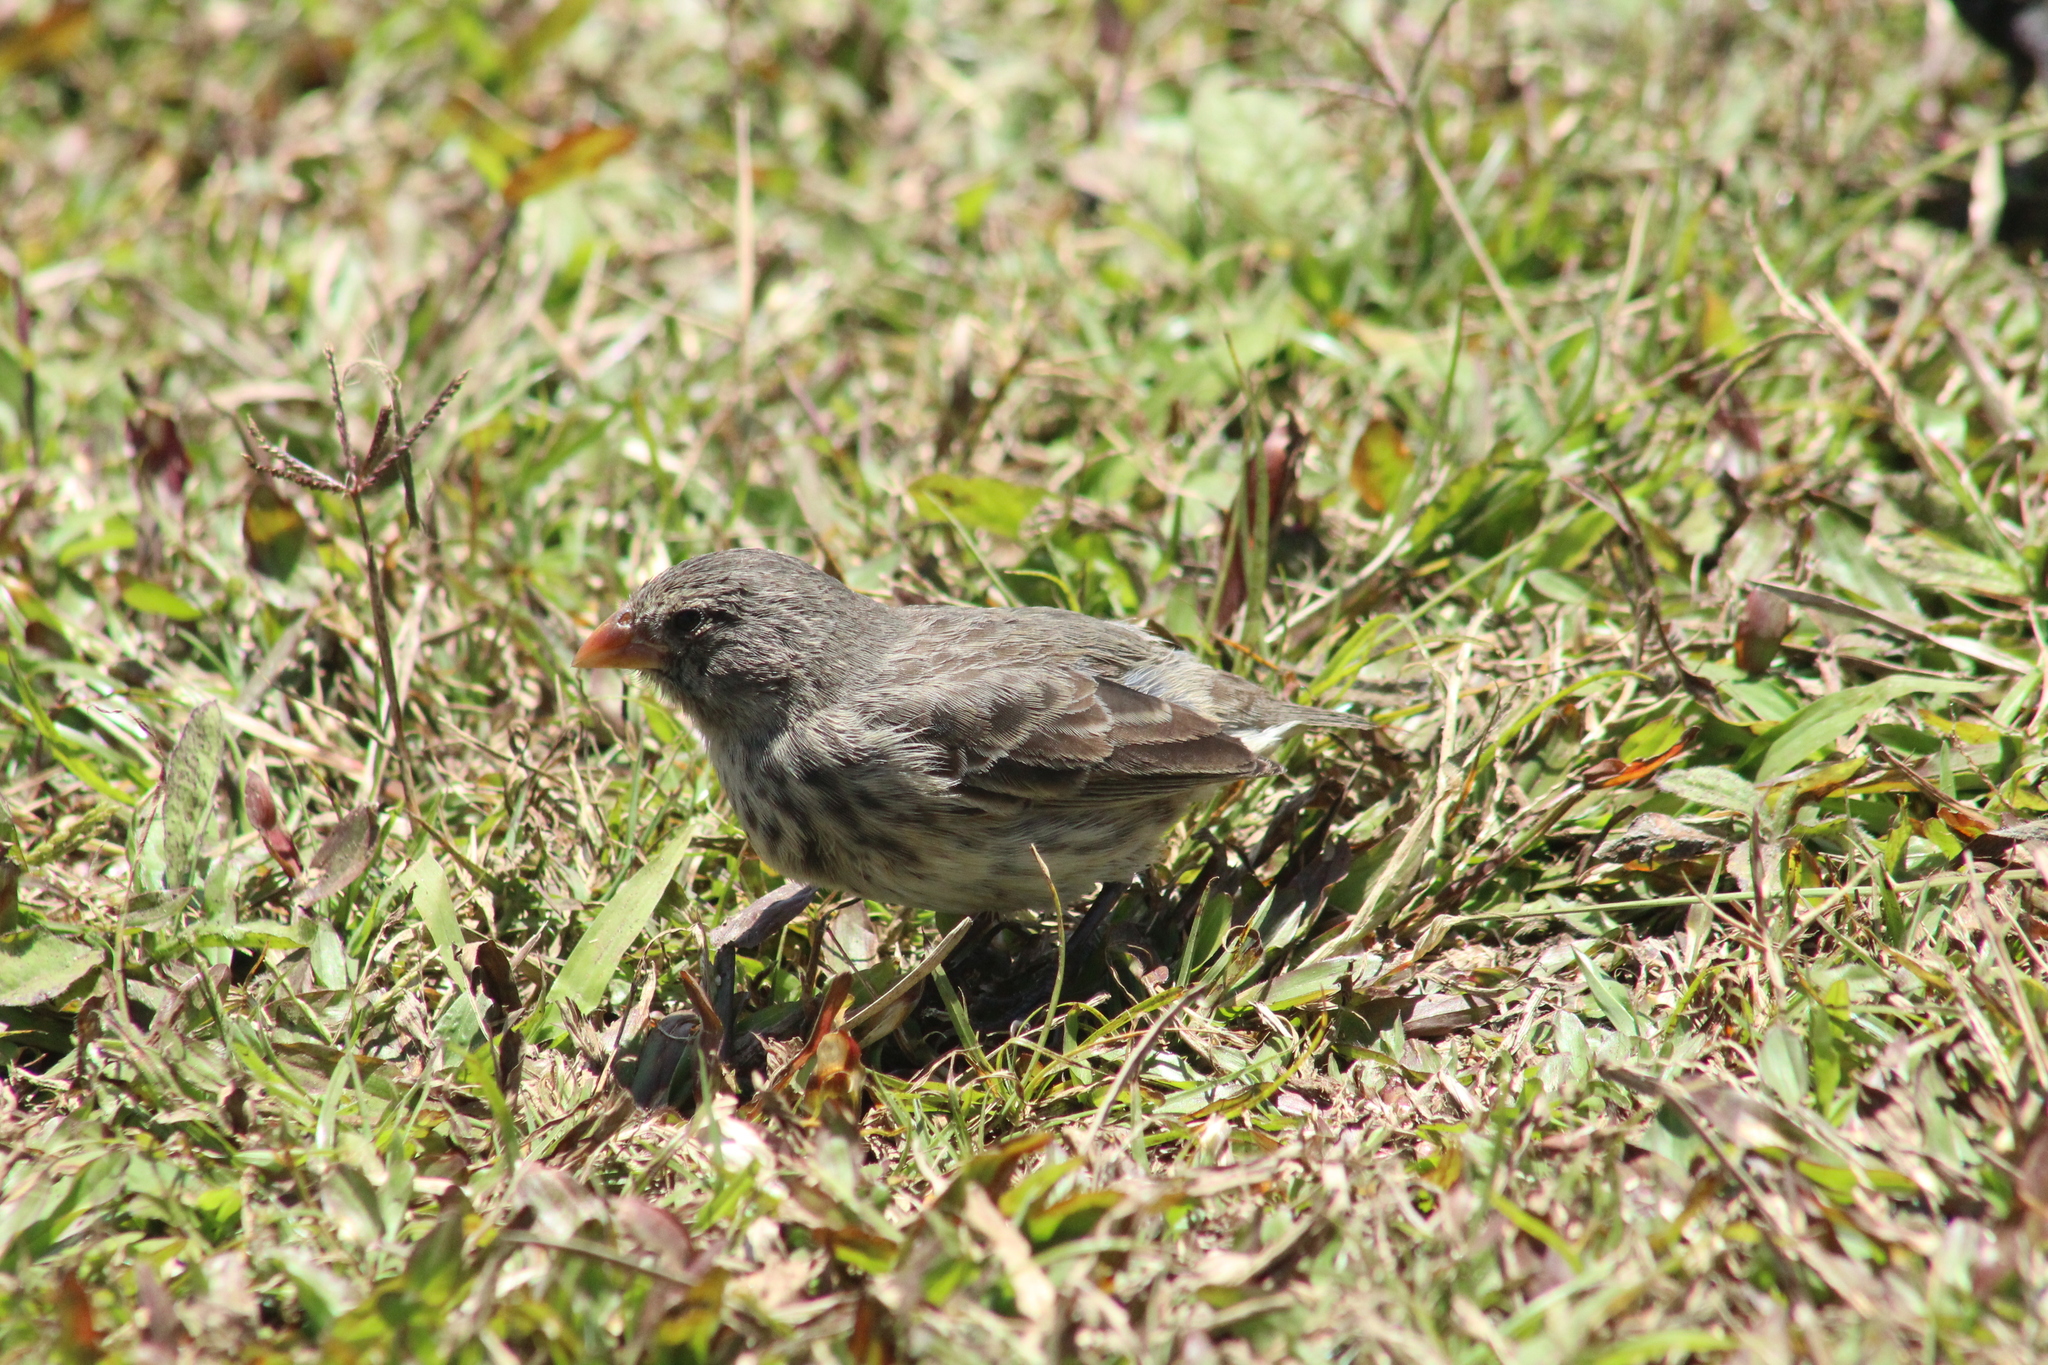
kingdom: Animalia
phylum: Chordata
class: Aves
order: Passeriformes
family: Thraupidae
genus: Geospiza
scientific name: Geospiza fortis
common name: Medium ground finch
